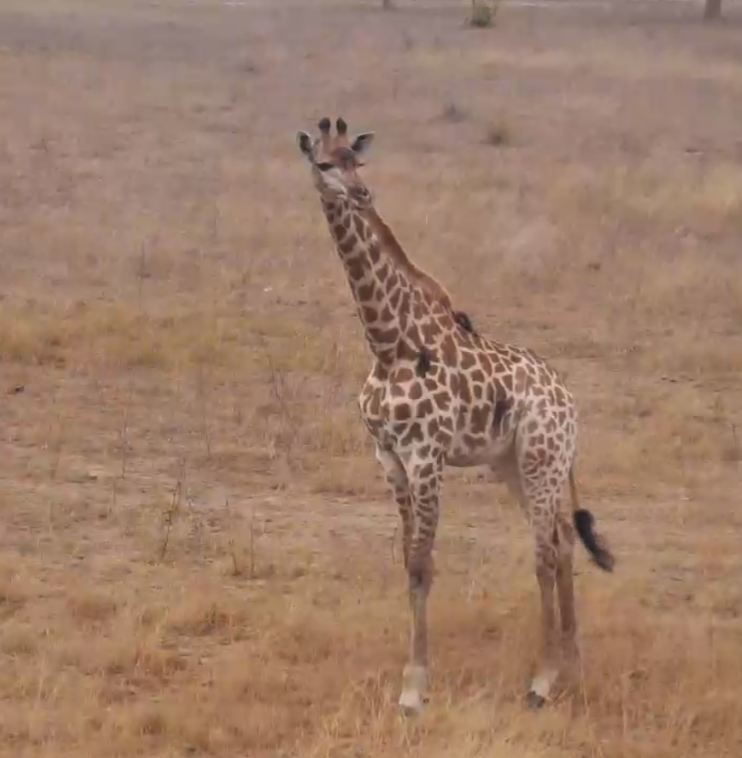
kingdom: Animalia
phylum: Chordata
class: Mammalia
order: Artiodactyla
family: Giraffidae
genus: Giraffa
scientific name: Giraffa giraffa
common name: Southern giraffe
